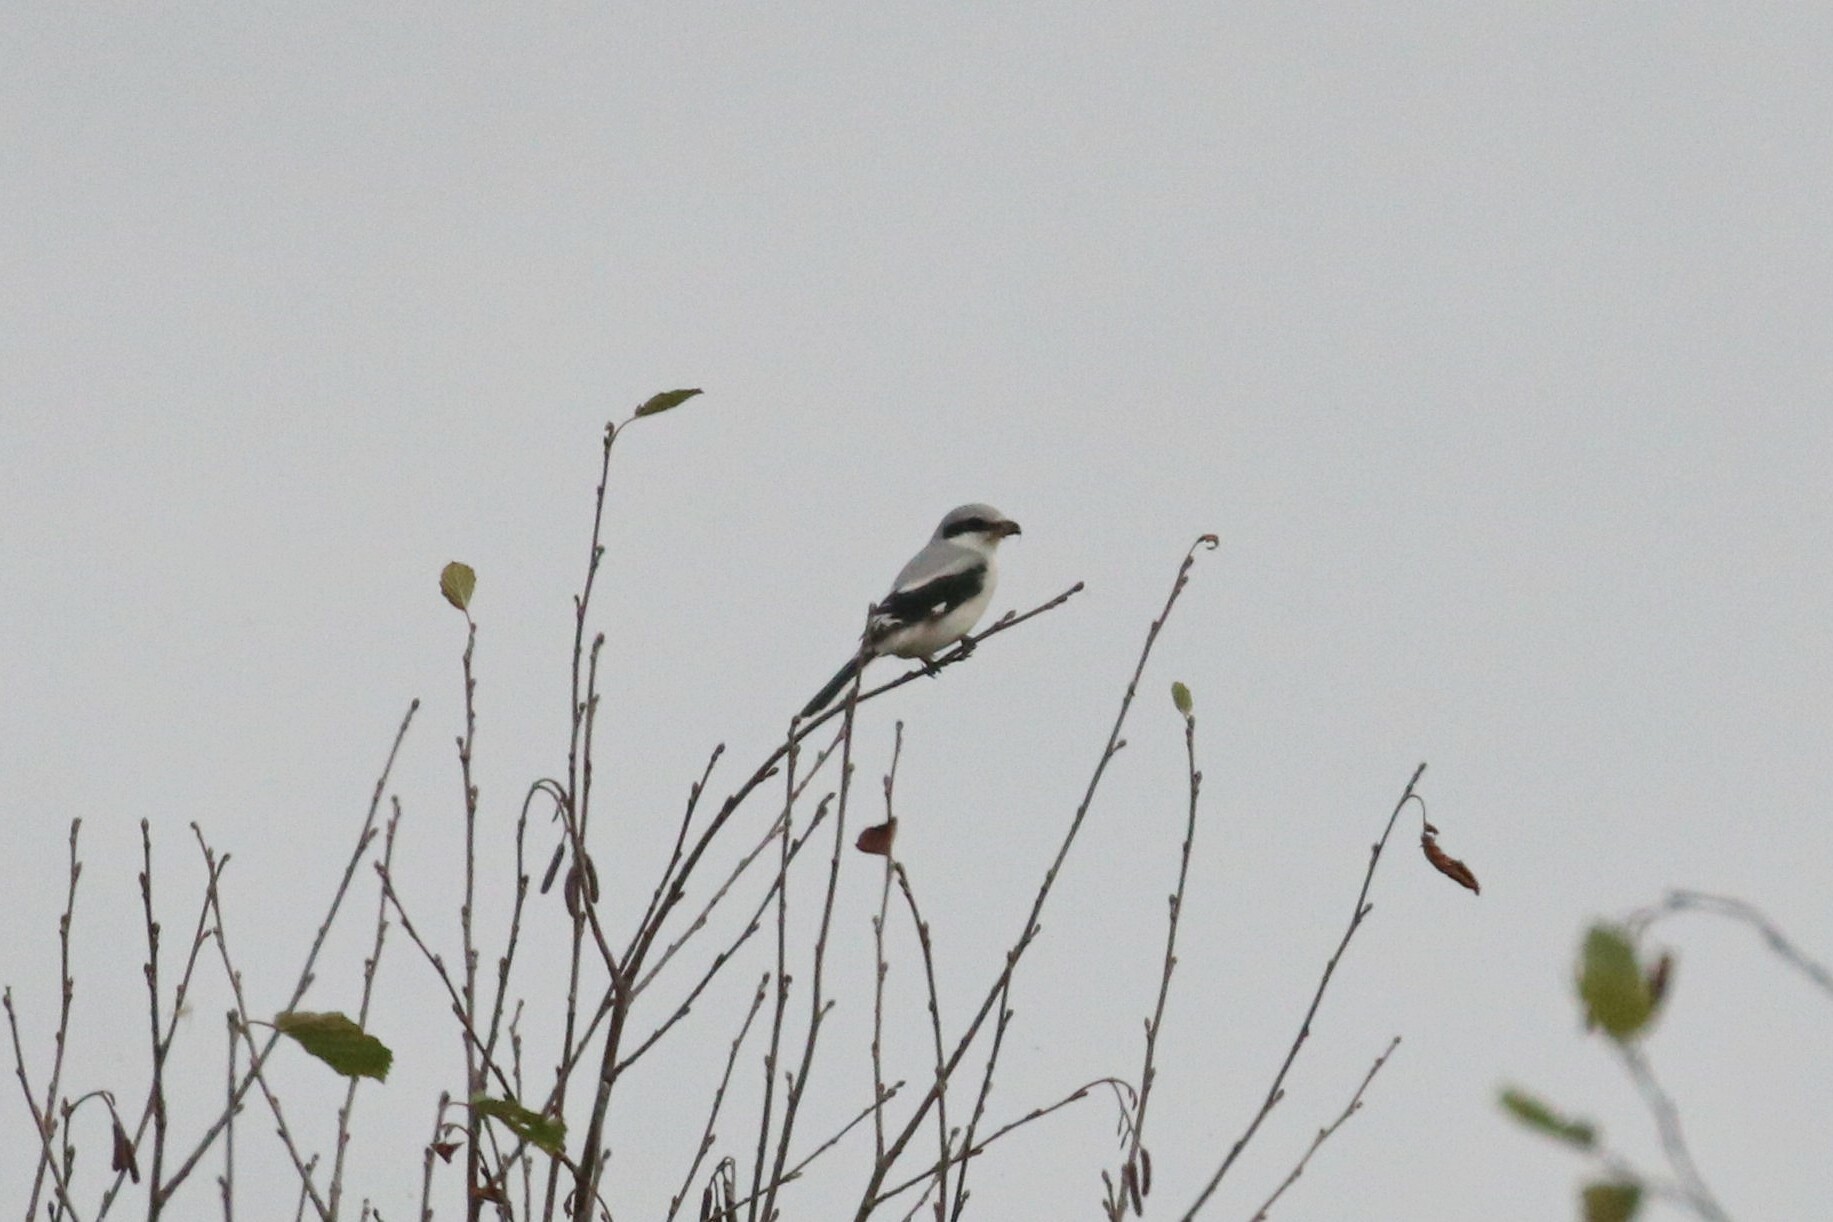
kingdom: Animalia
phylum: Chordata
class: Aves
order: Passeriformes
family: Laniidae
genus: Lanius
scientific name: Lanius excubitor
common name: Great grey shrike
